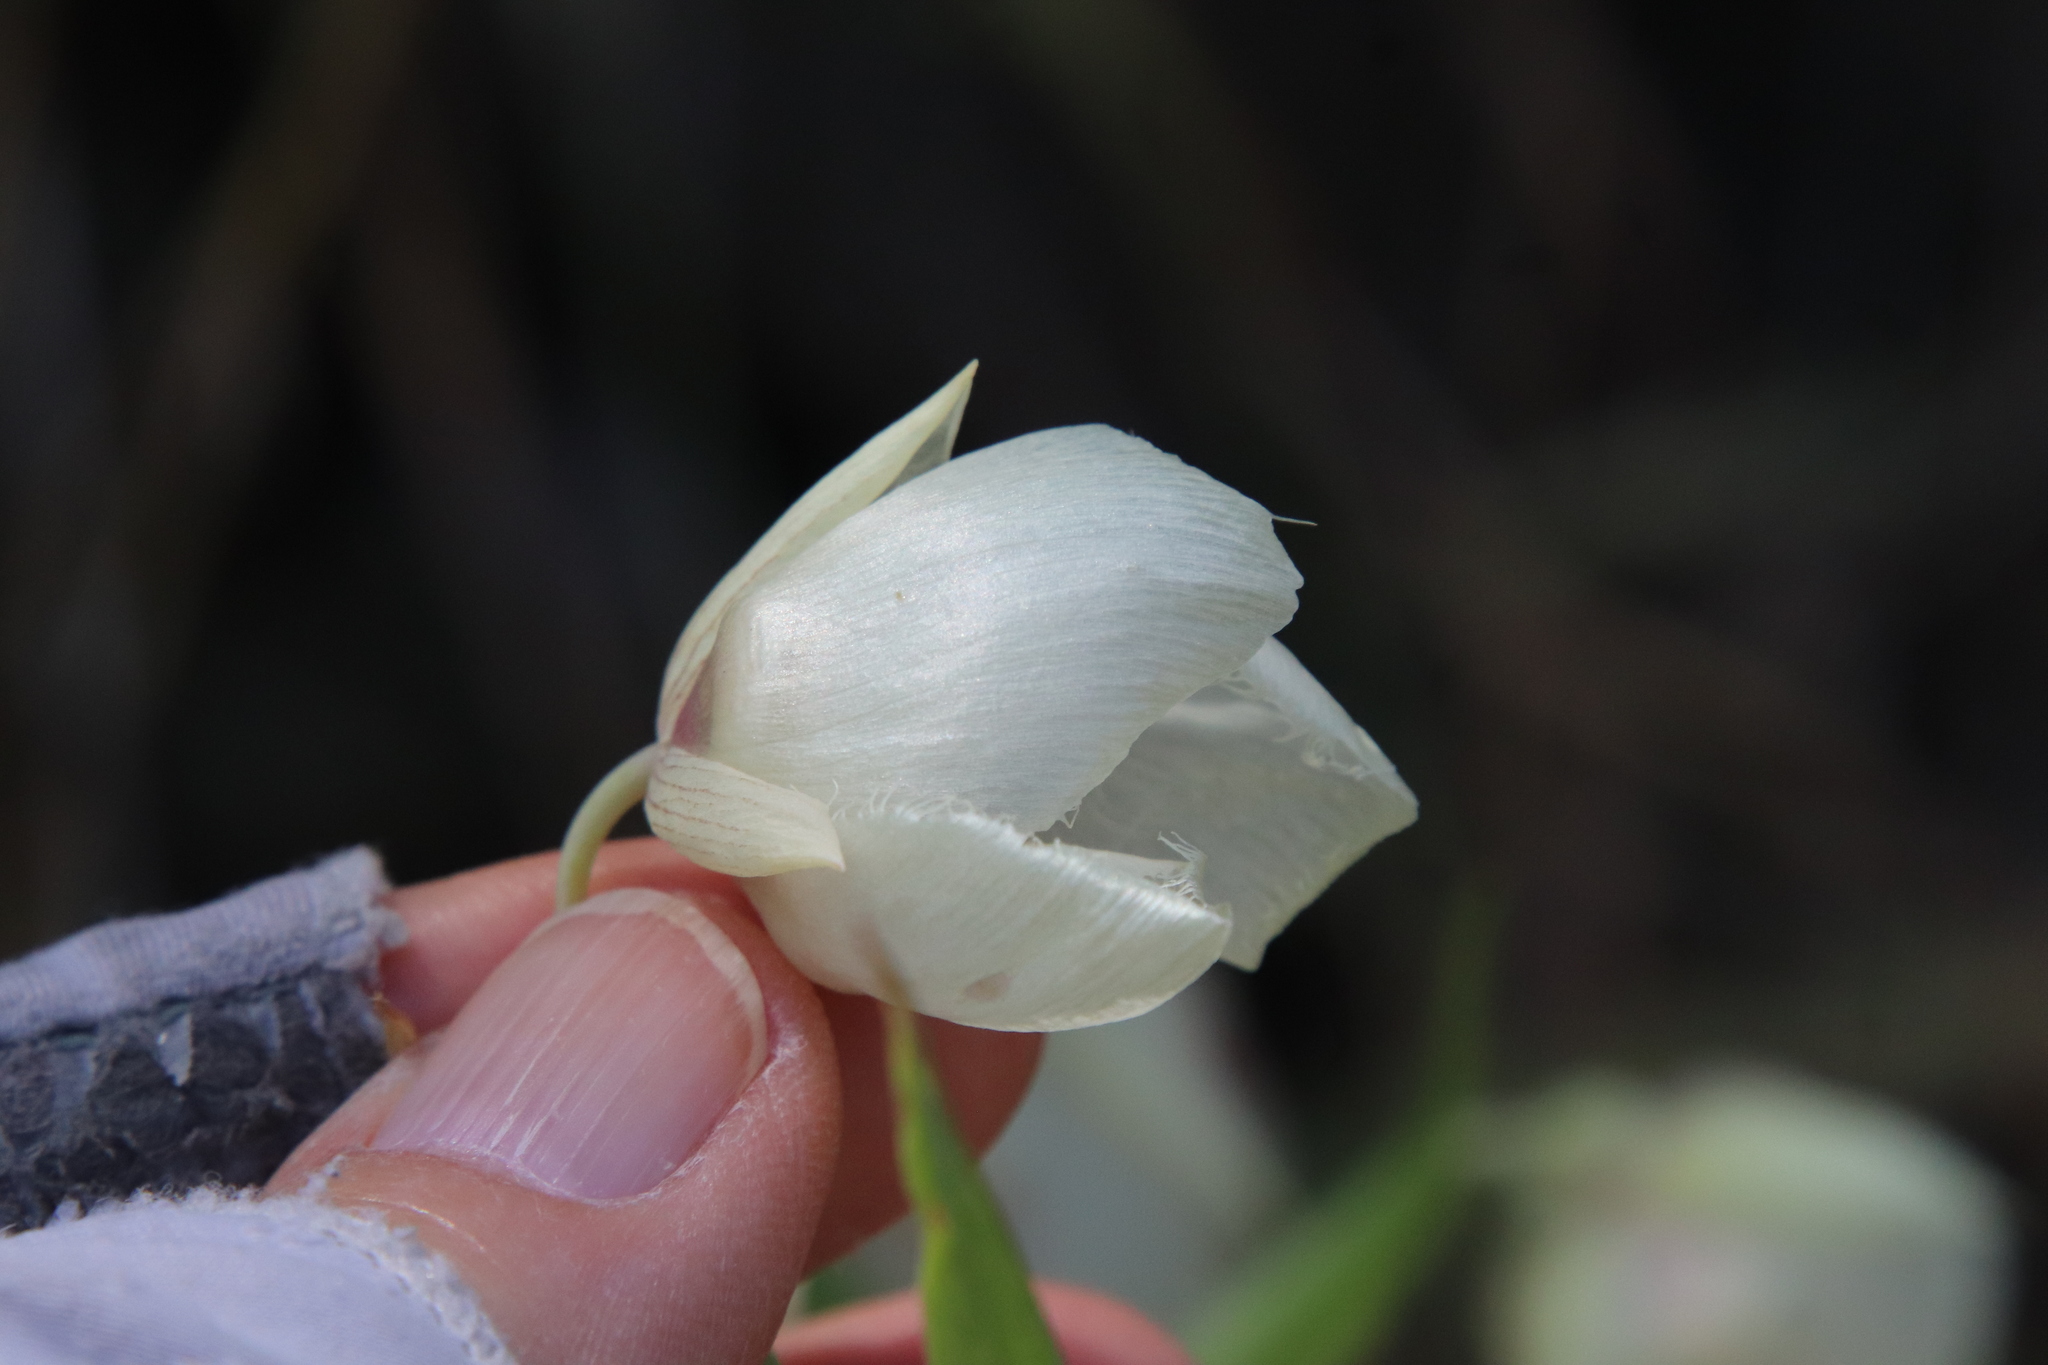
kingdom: Plantae
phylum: Tracheophyta
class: Liliopsida
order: Liliales
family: Liliaceae
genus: Calochortus
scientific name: Calochortus albus
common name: Fairy-lantern
